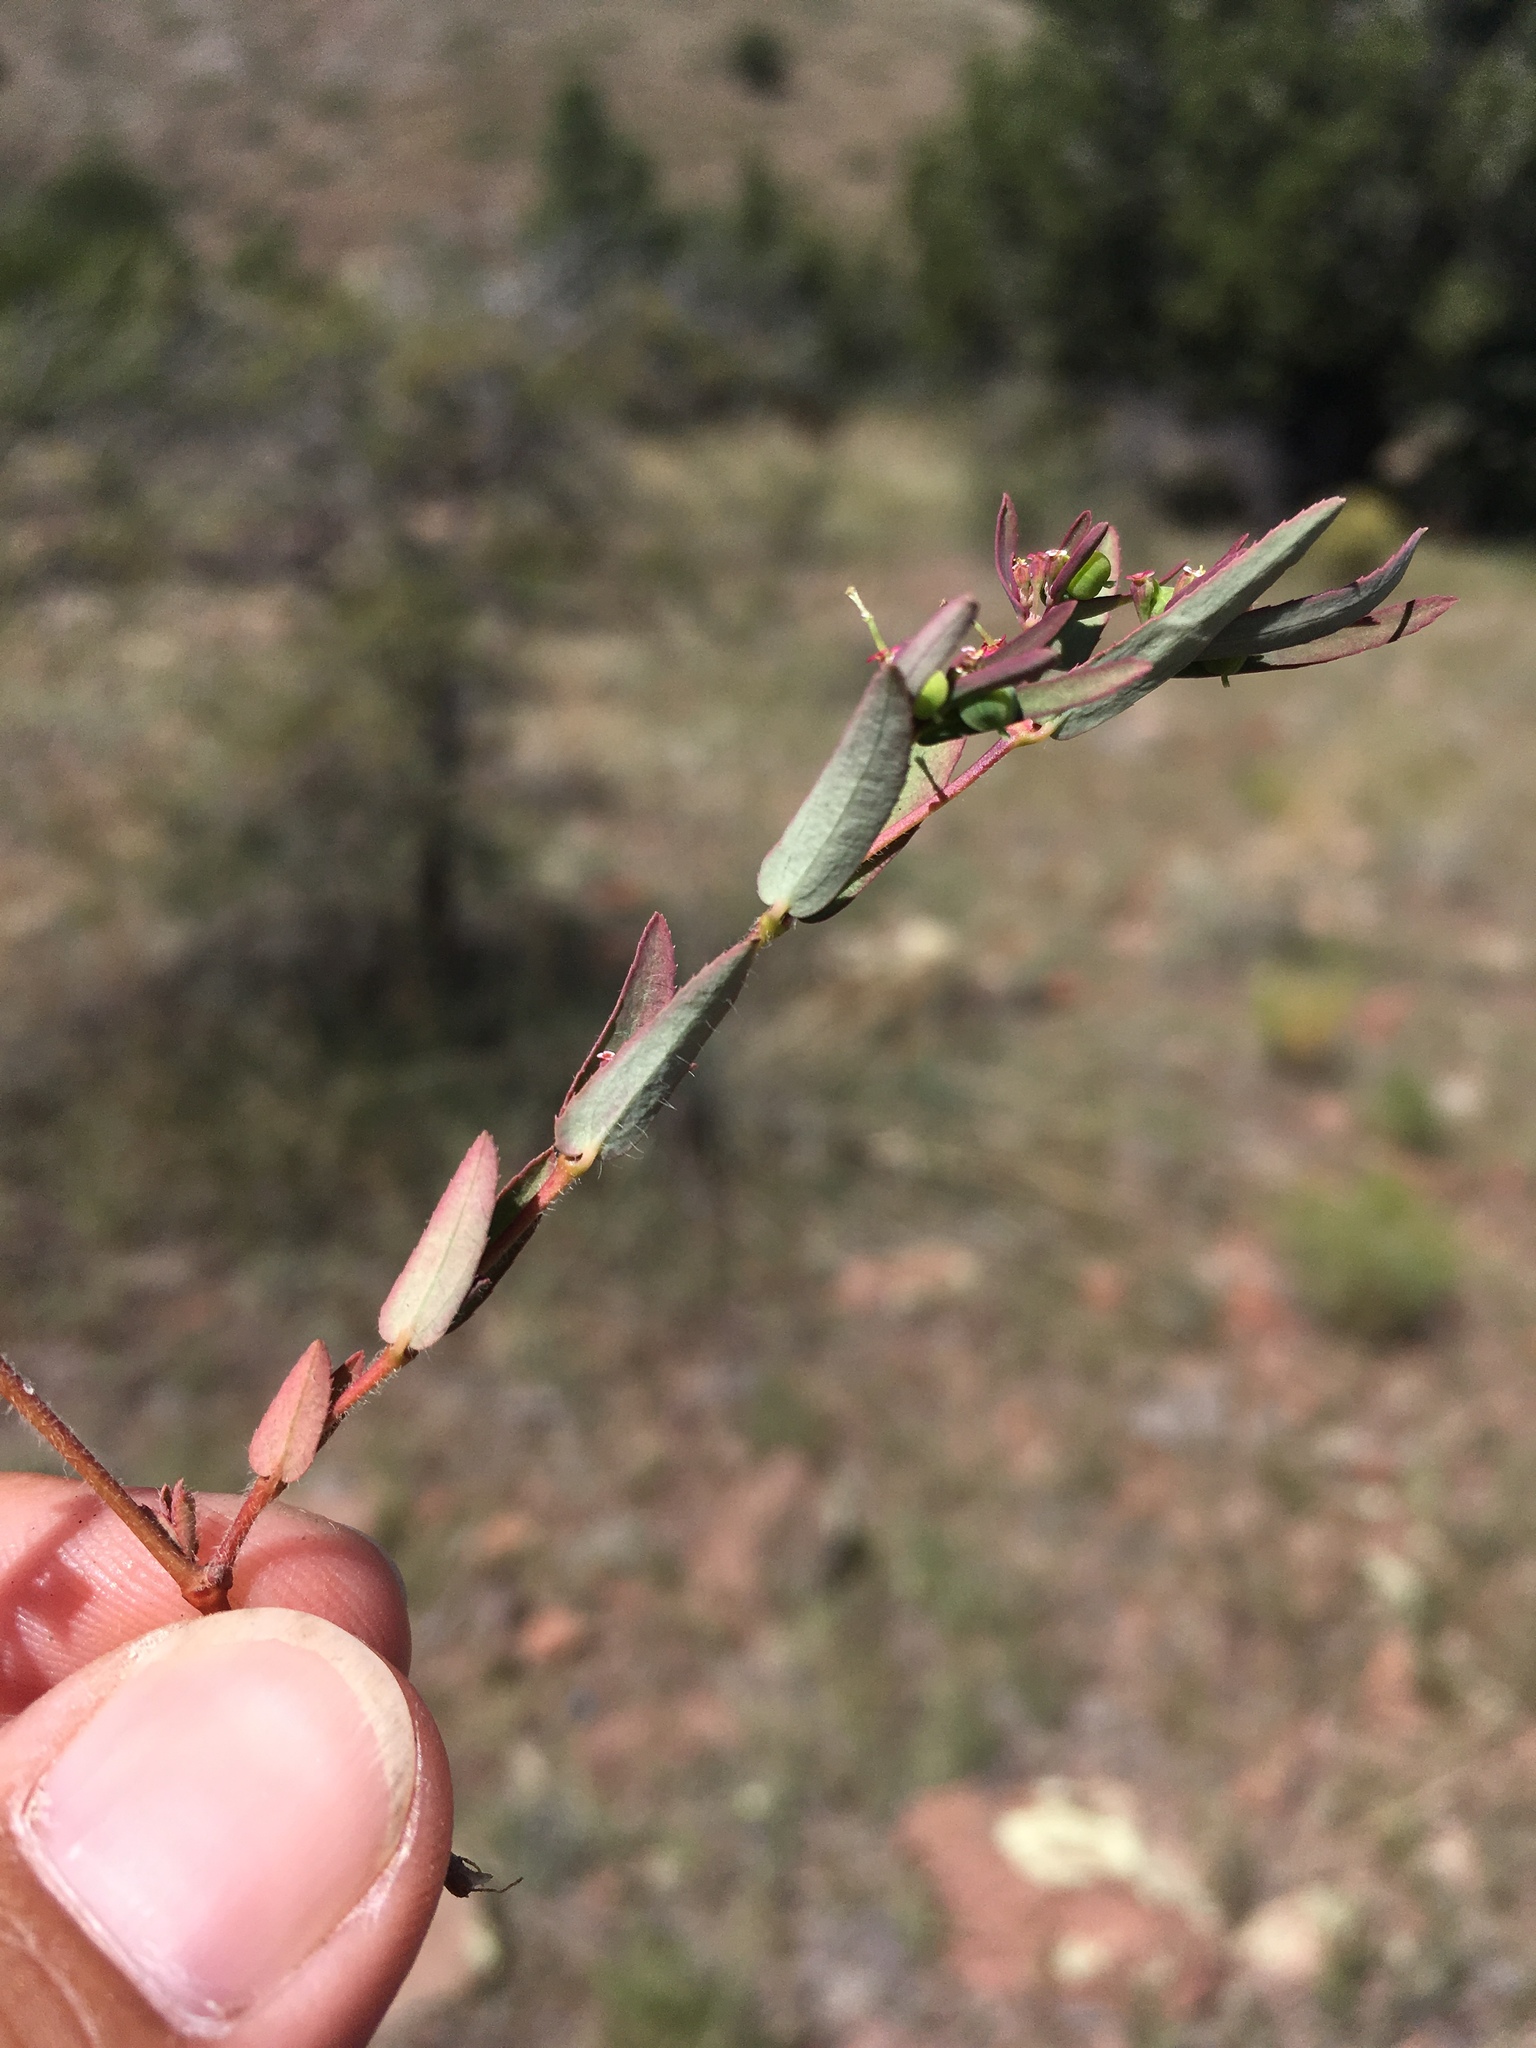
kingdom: Plantae
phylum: Tracheophyta
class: Magnoliopsida
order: Malpighiales
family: Euphorbiaceae
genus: Euphorbia
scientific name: Euphorbia hyssopifolia
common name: Hyssopleaf sandmat
